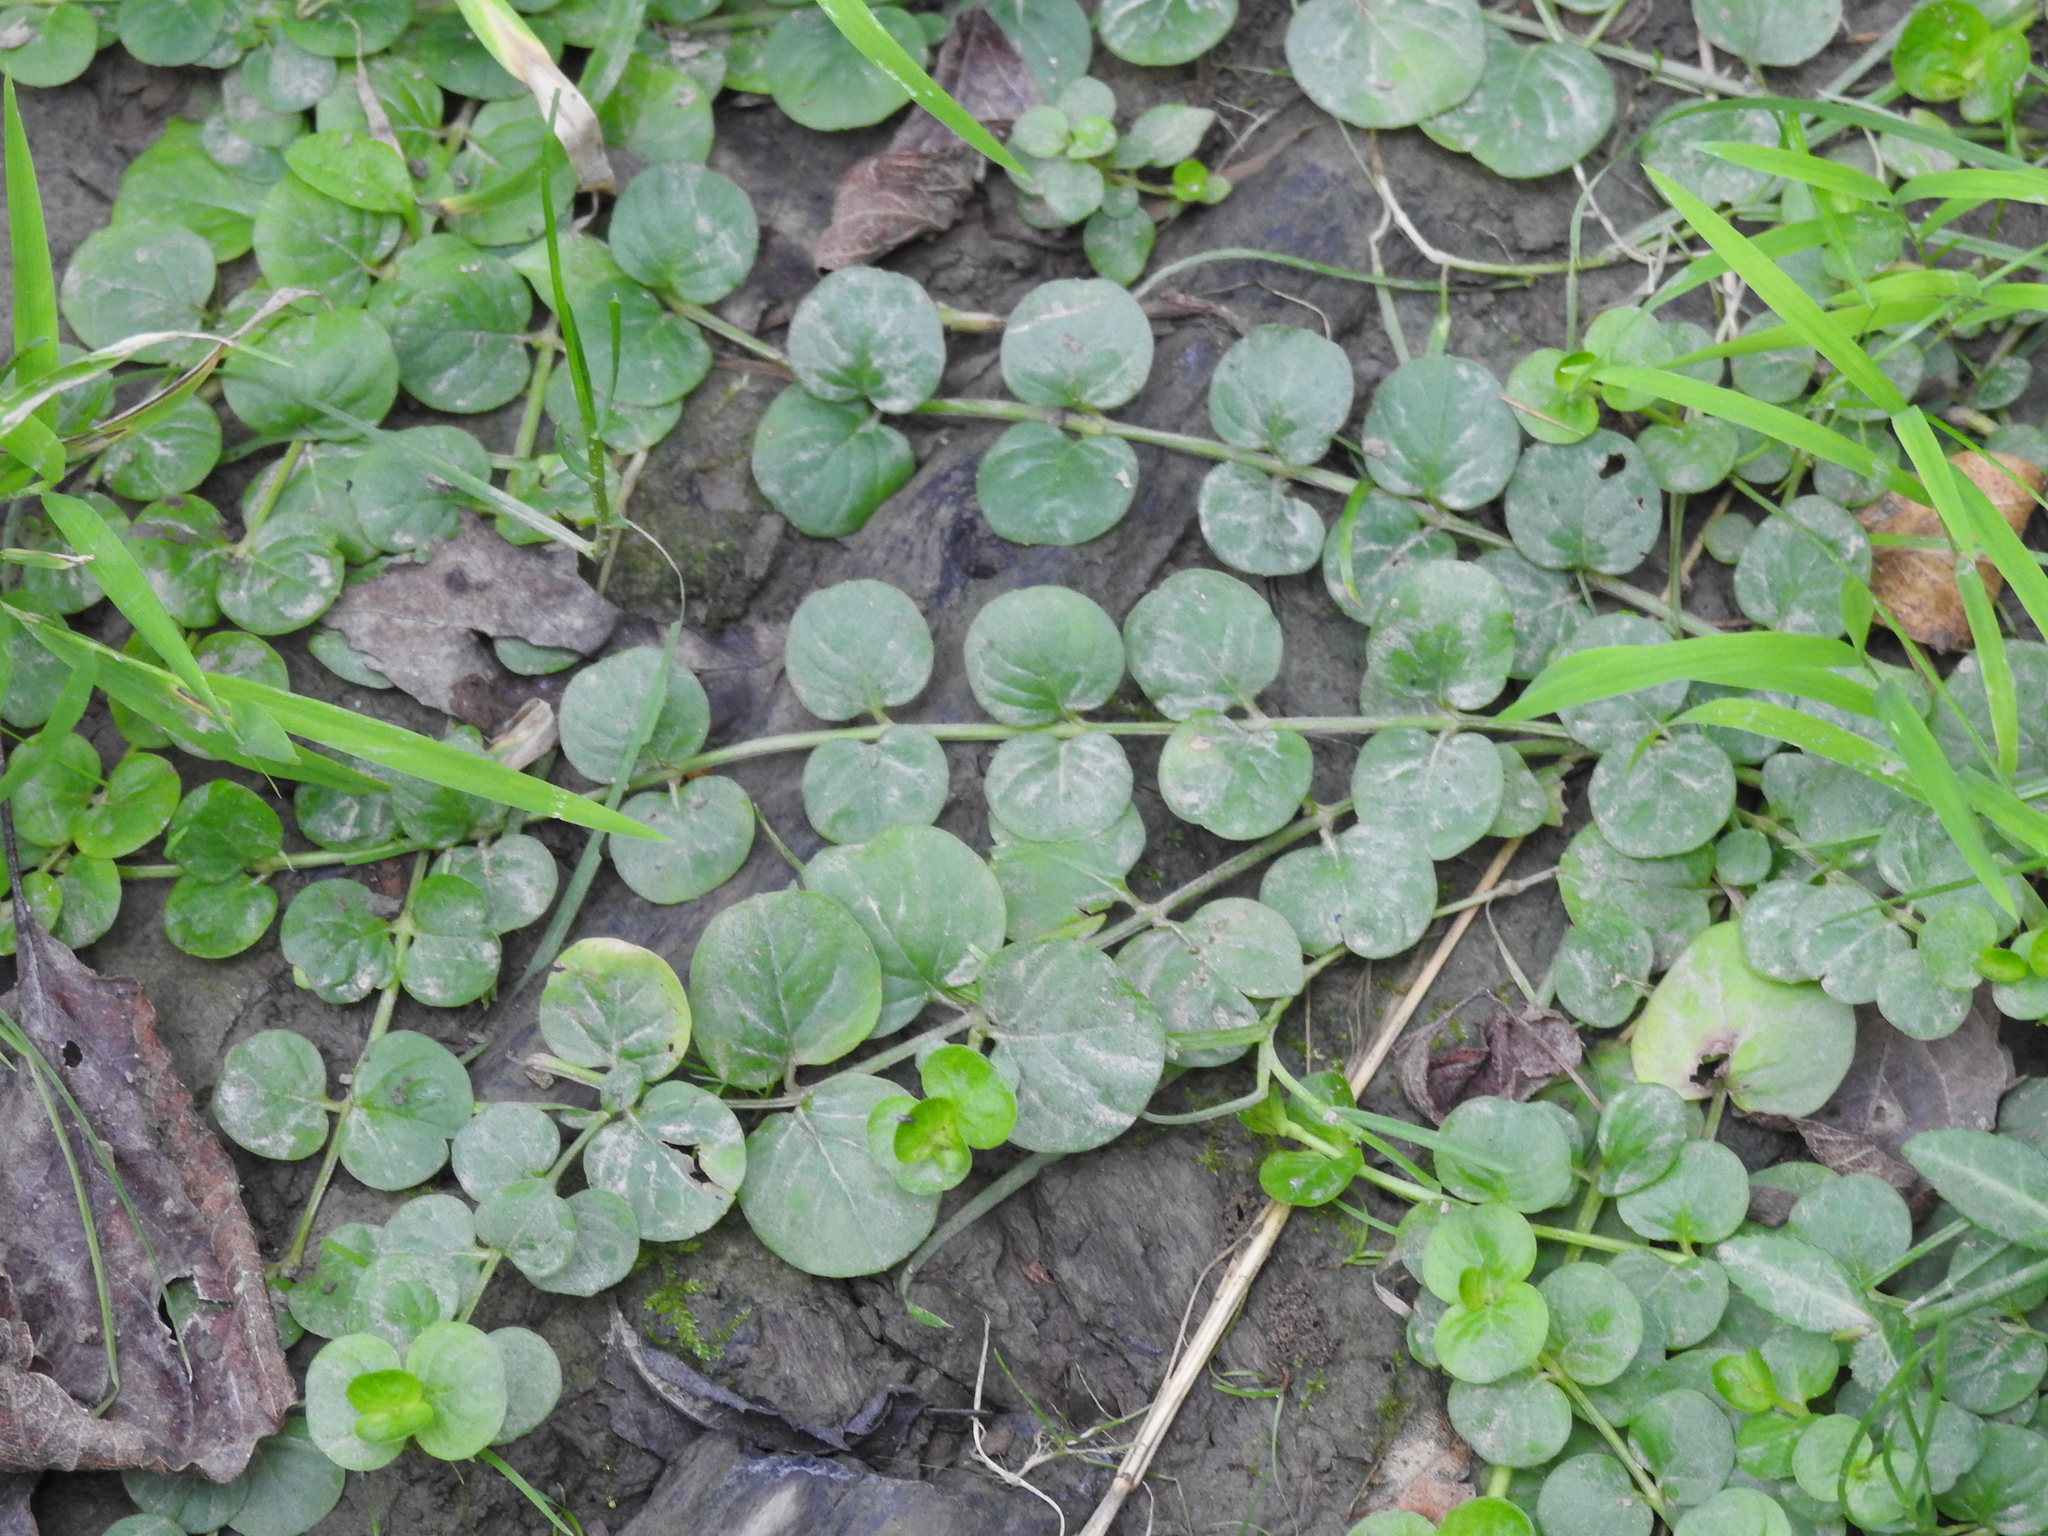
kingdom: Plantae
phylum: Tracheophyta
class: Magnoliopsida
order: Ericales
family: Primulaceae
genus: Lysimachia
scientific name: Lysimachia nummularia
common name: Moneywort
